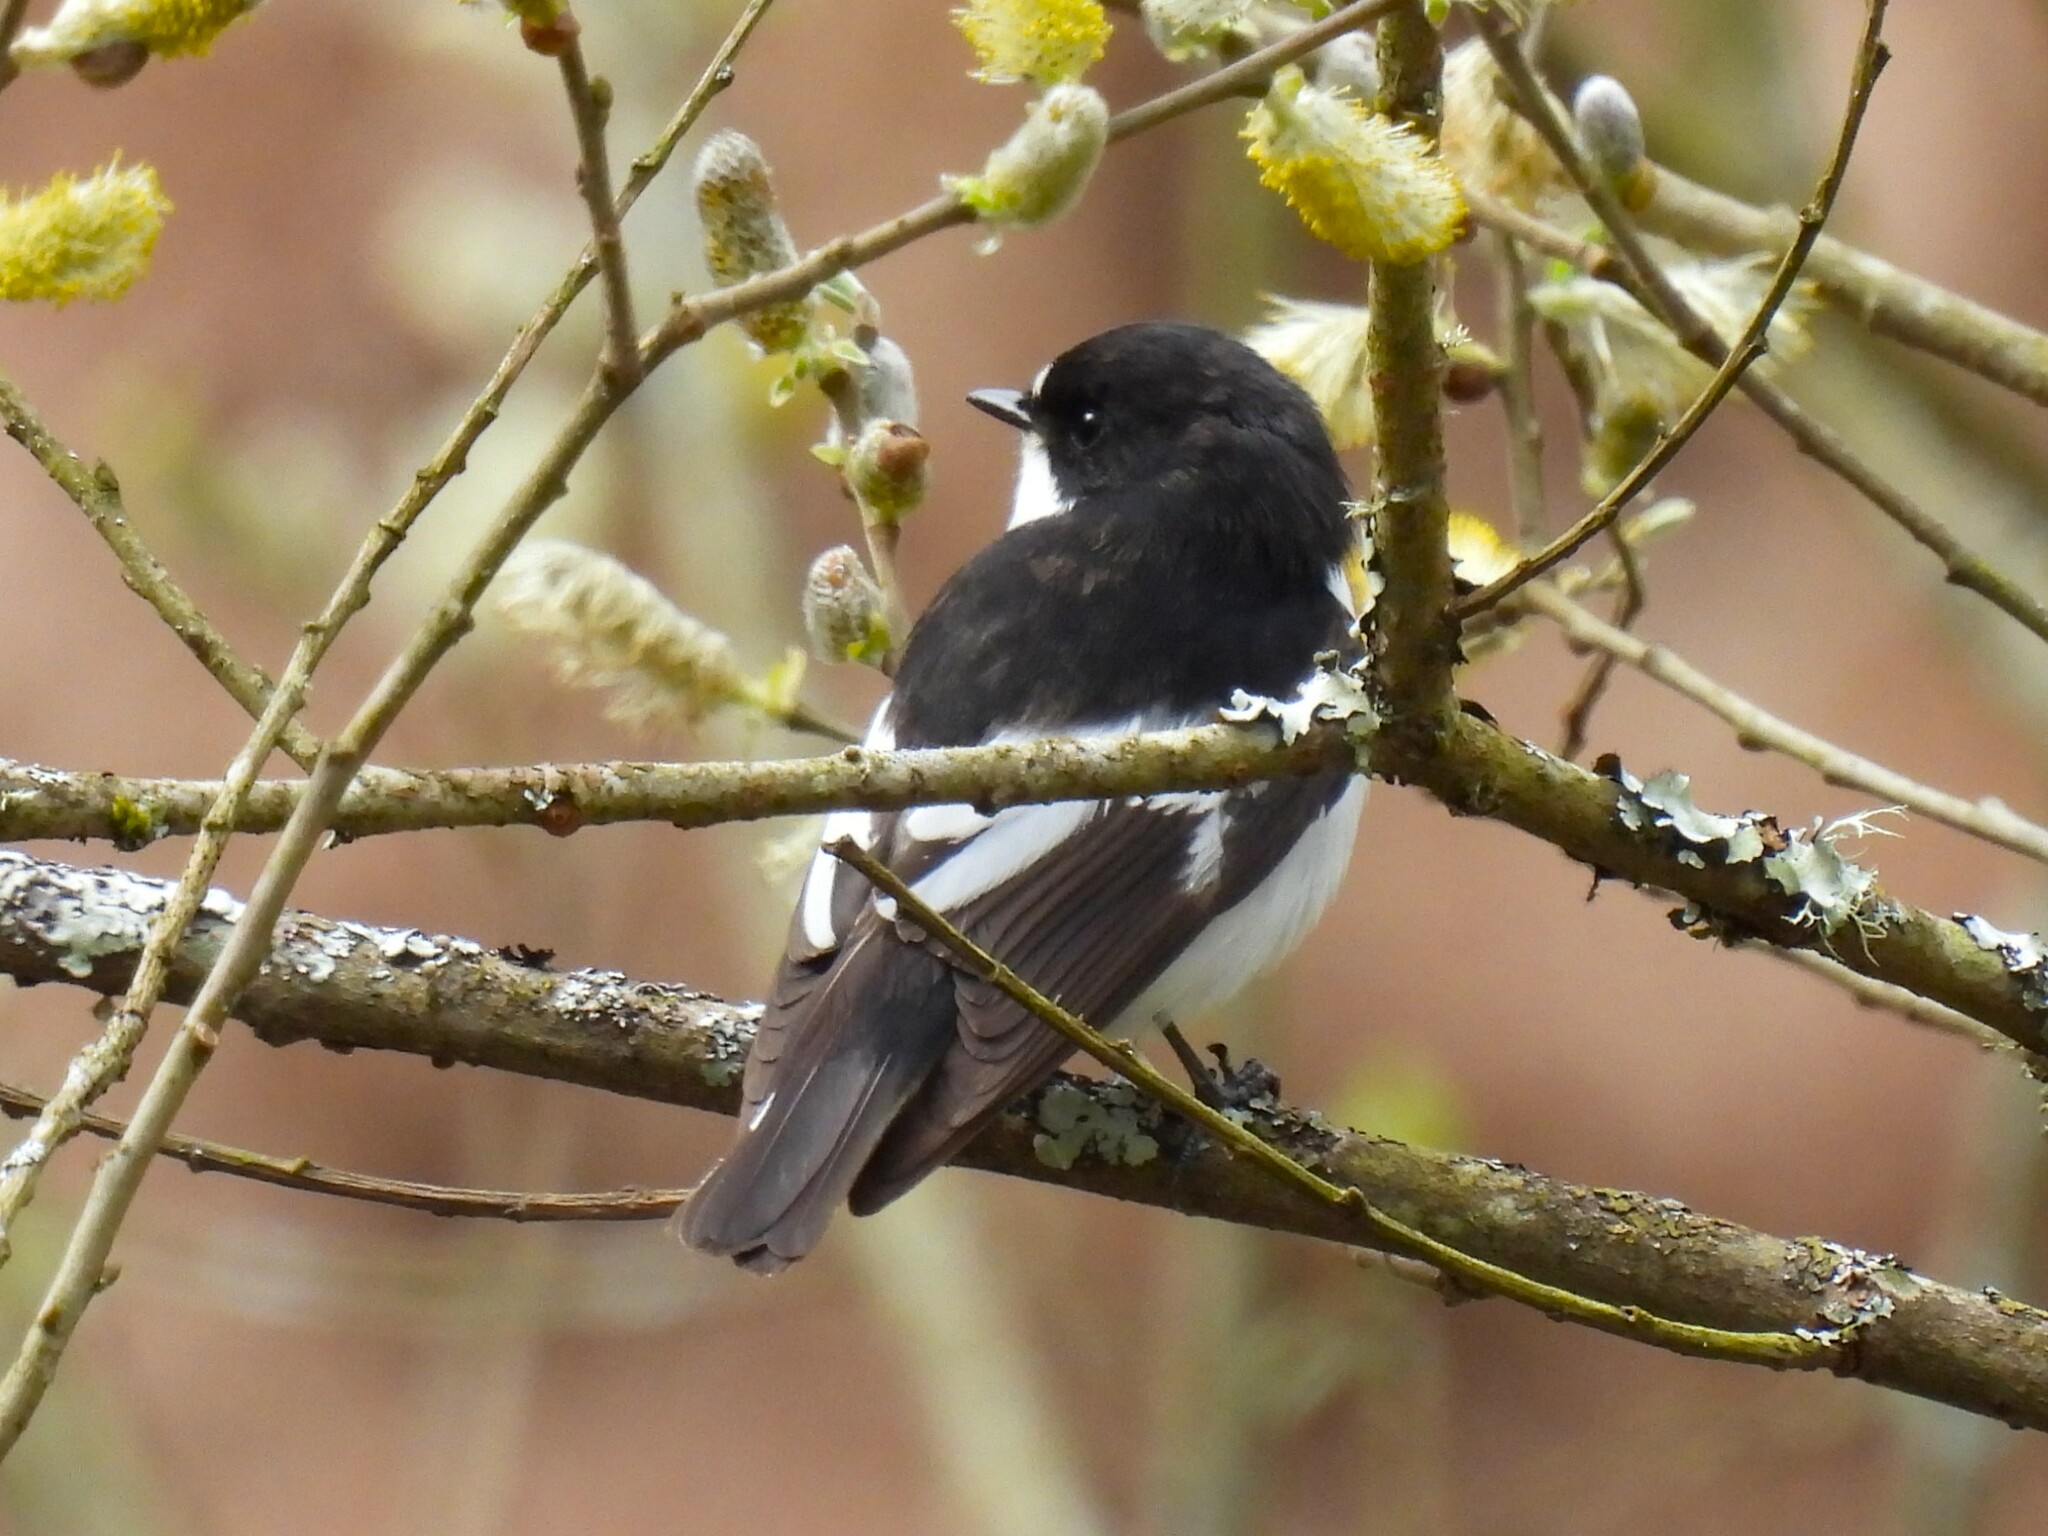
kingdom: Animalia
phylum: Chordata
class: Aves
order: Passeriformes
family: Muscicapidae
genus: Ficedula
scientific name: Ficedula hypoleuca
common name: European pied flycatcher
